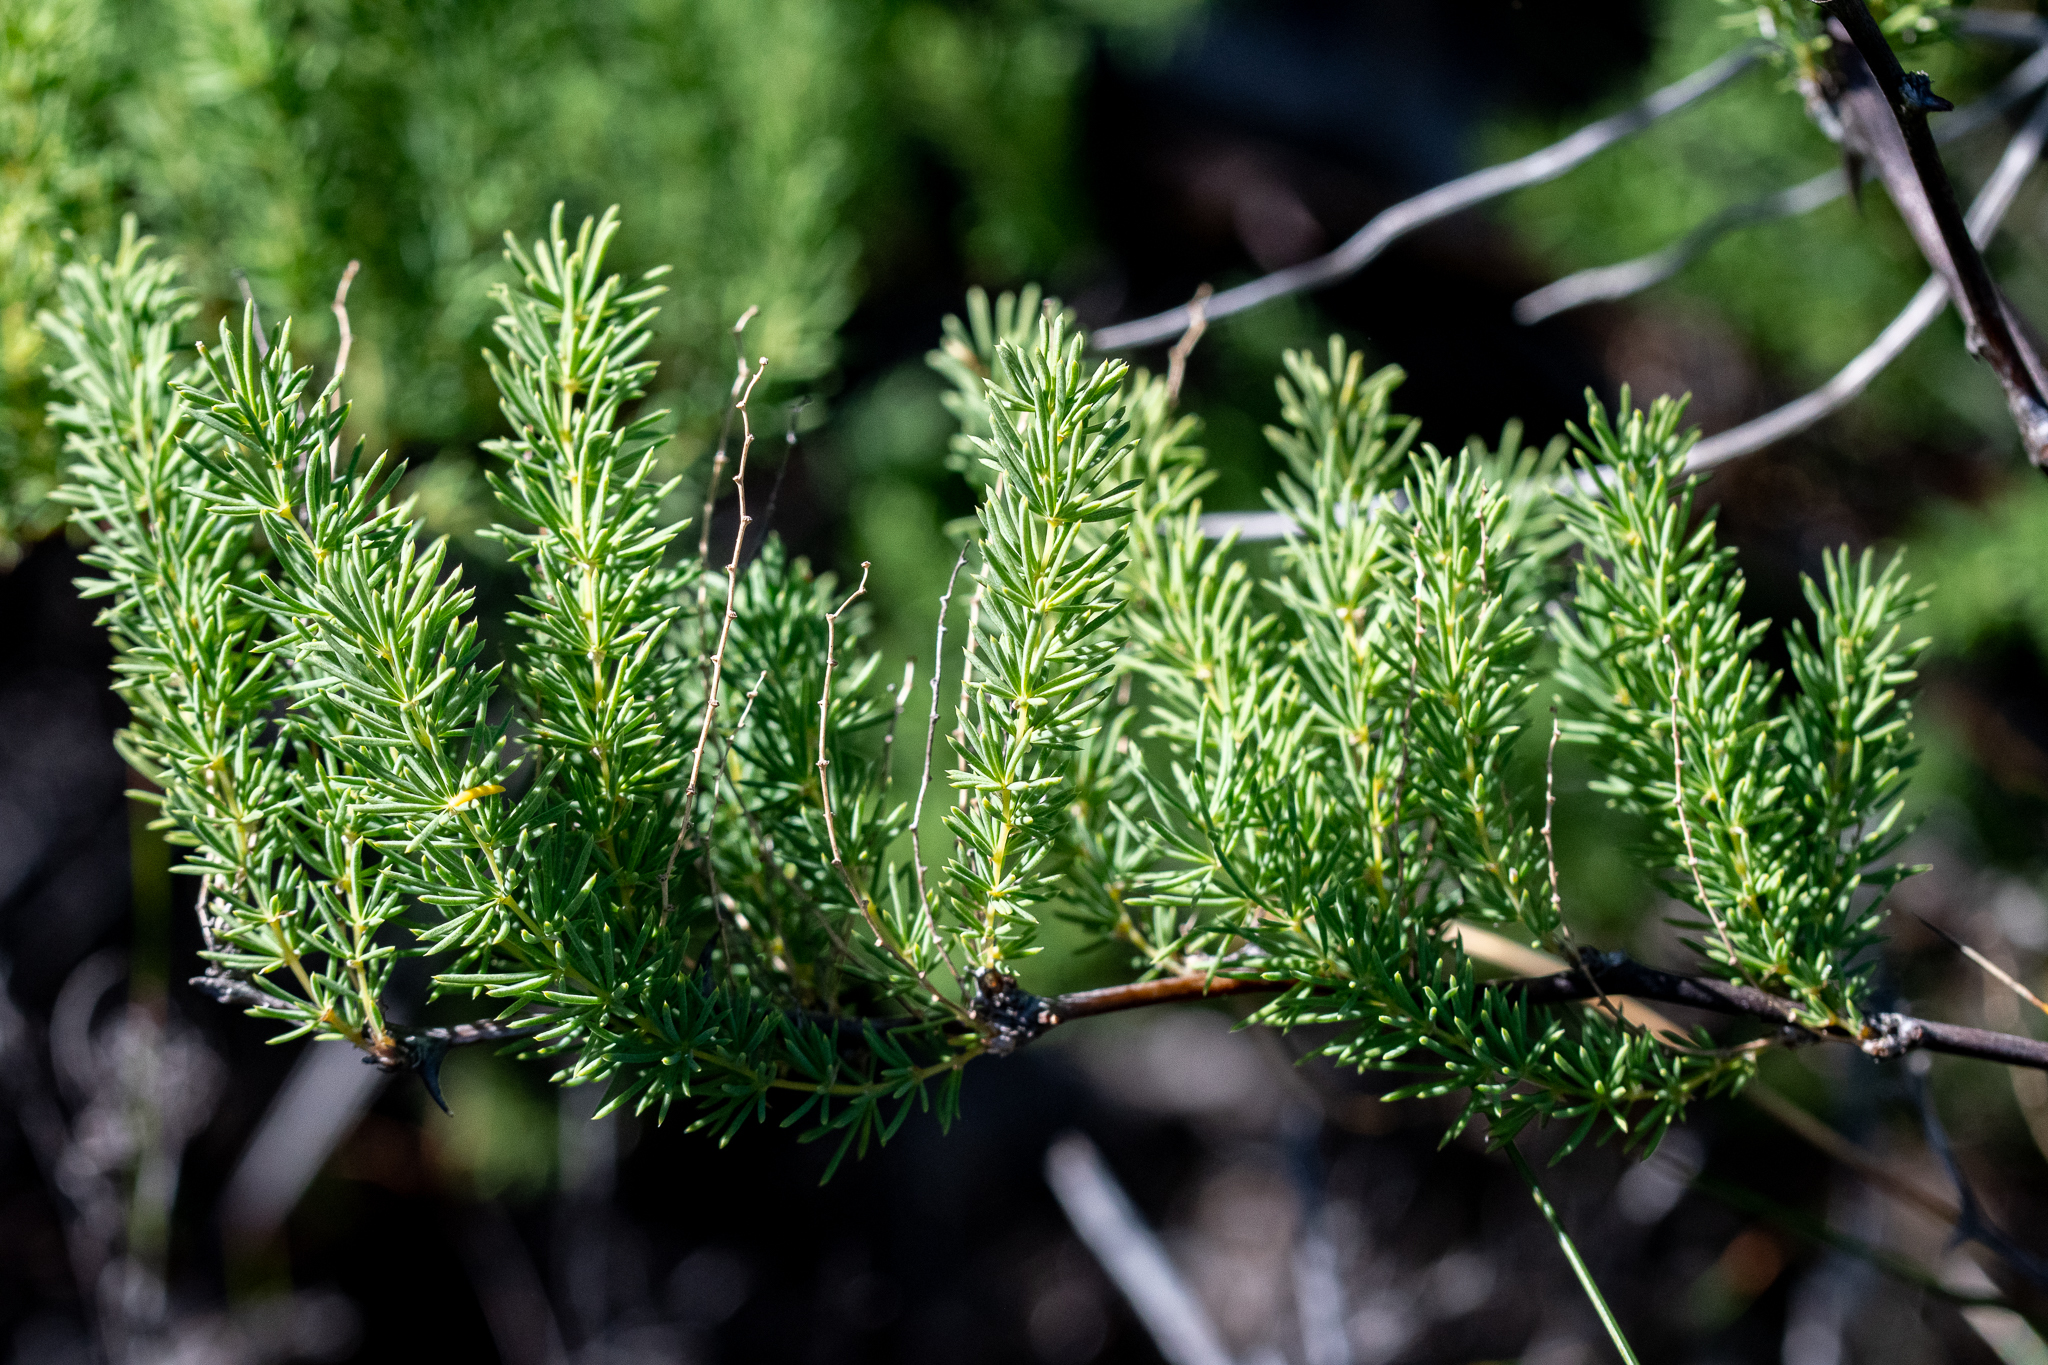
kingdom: Plantae
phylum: Tracheophyta
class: Liliopsida
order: Asparagales
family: Asparagaceae
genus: Asparagus
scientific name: Asparagus rubicundus
